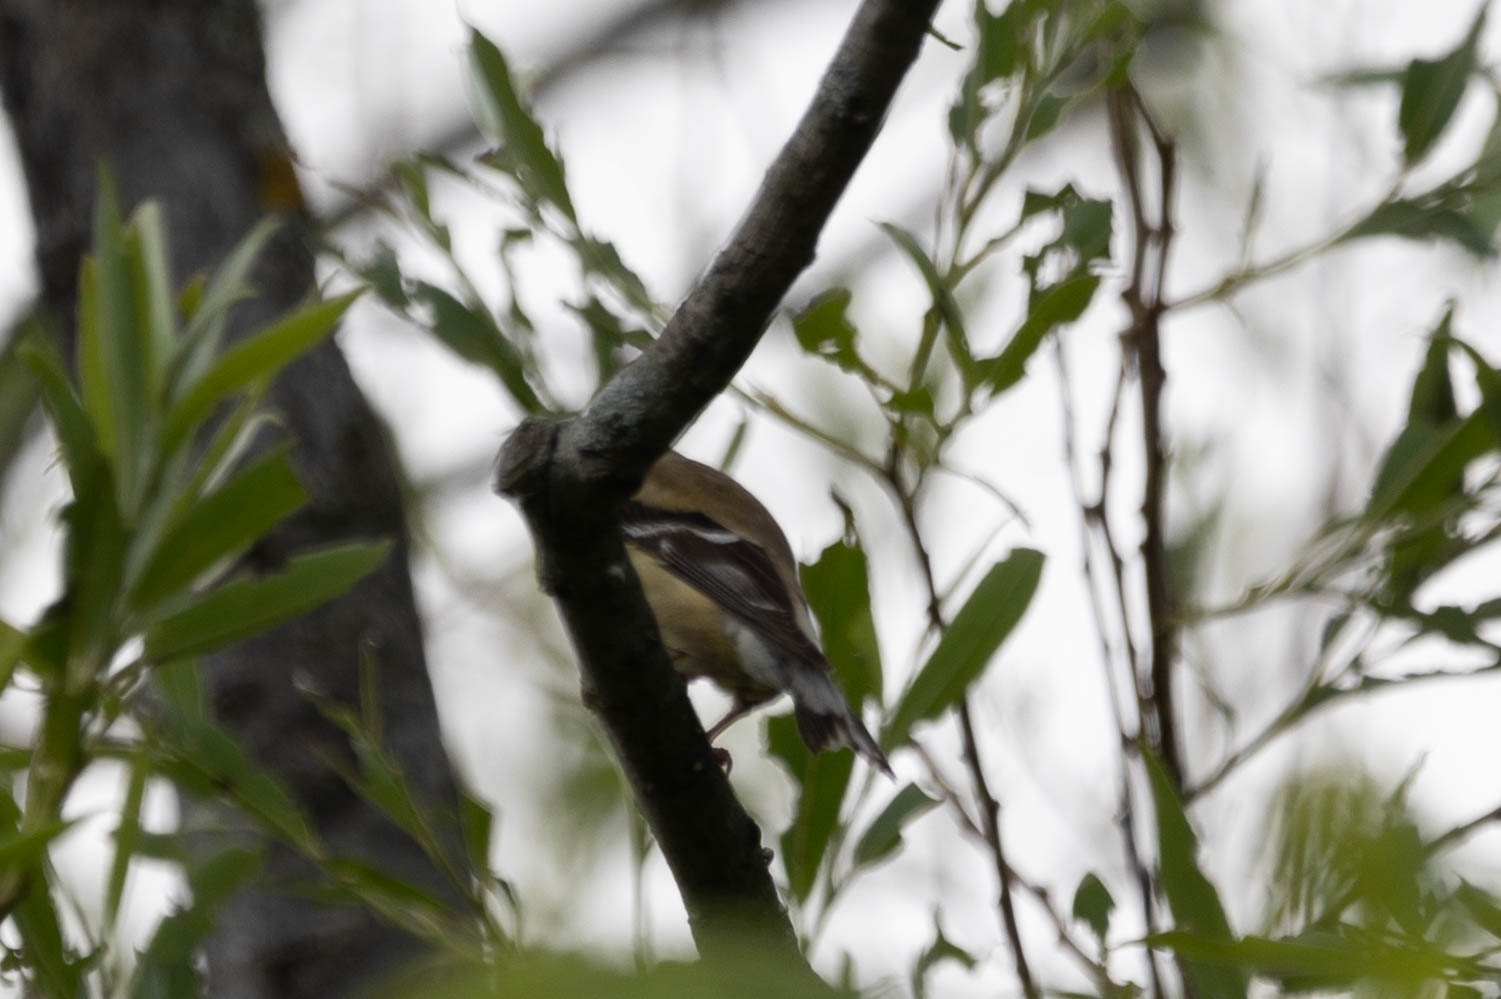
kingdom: Animalia
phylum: Chordata
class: Aves
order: Passeriformes
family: Fringillidae
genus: Spinus
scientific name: Spinus tristis
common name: American goldfinch
